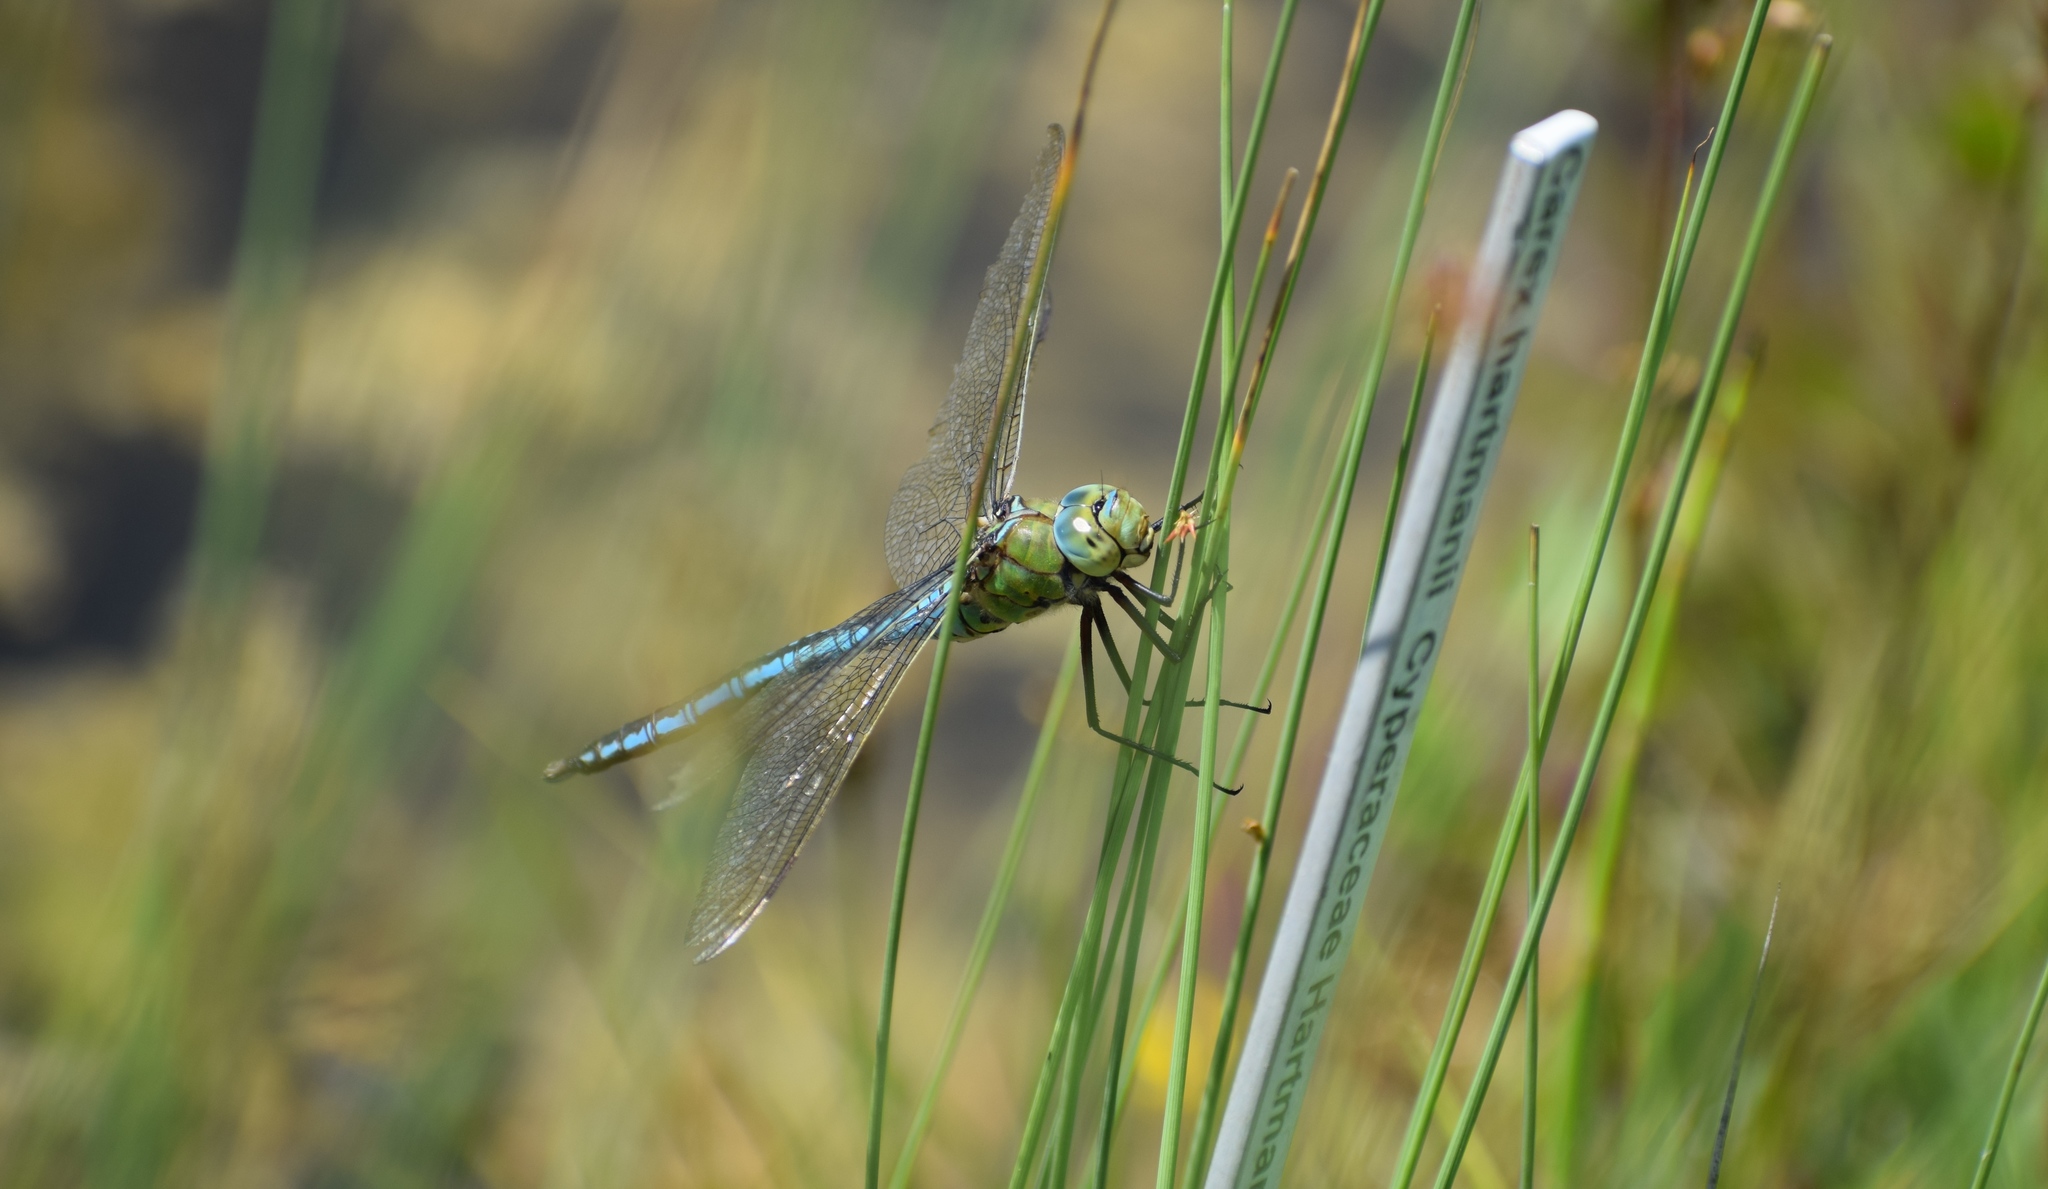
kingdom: Animalia
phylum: Arthropoda
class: Insecta
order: Odonata
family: Aeshnidae
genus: Anax
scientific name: Anax imperator
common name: Emperor dragonfly
